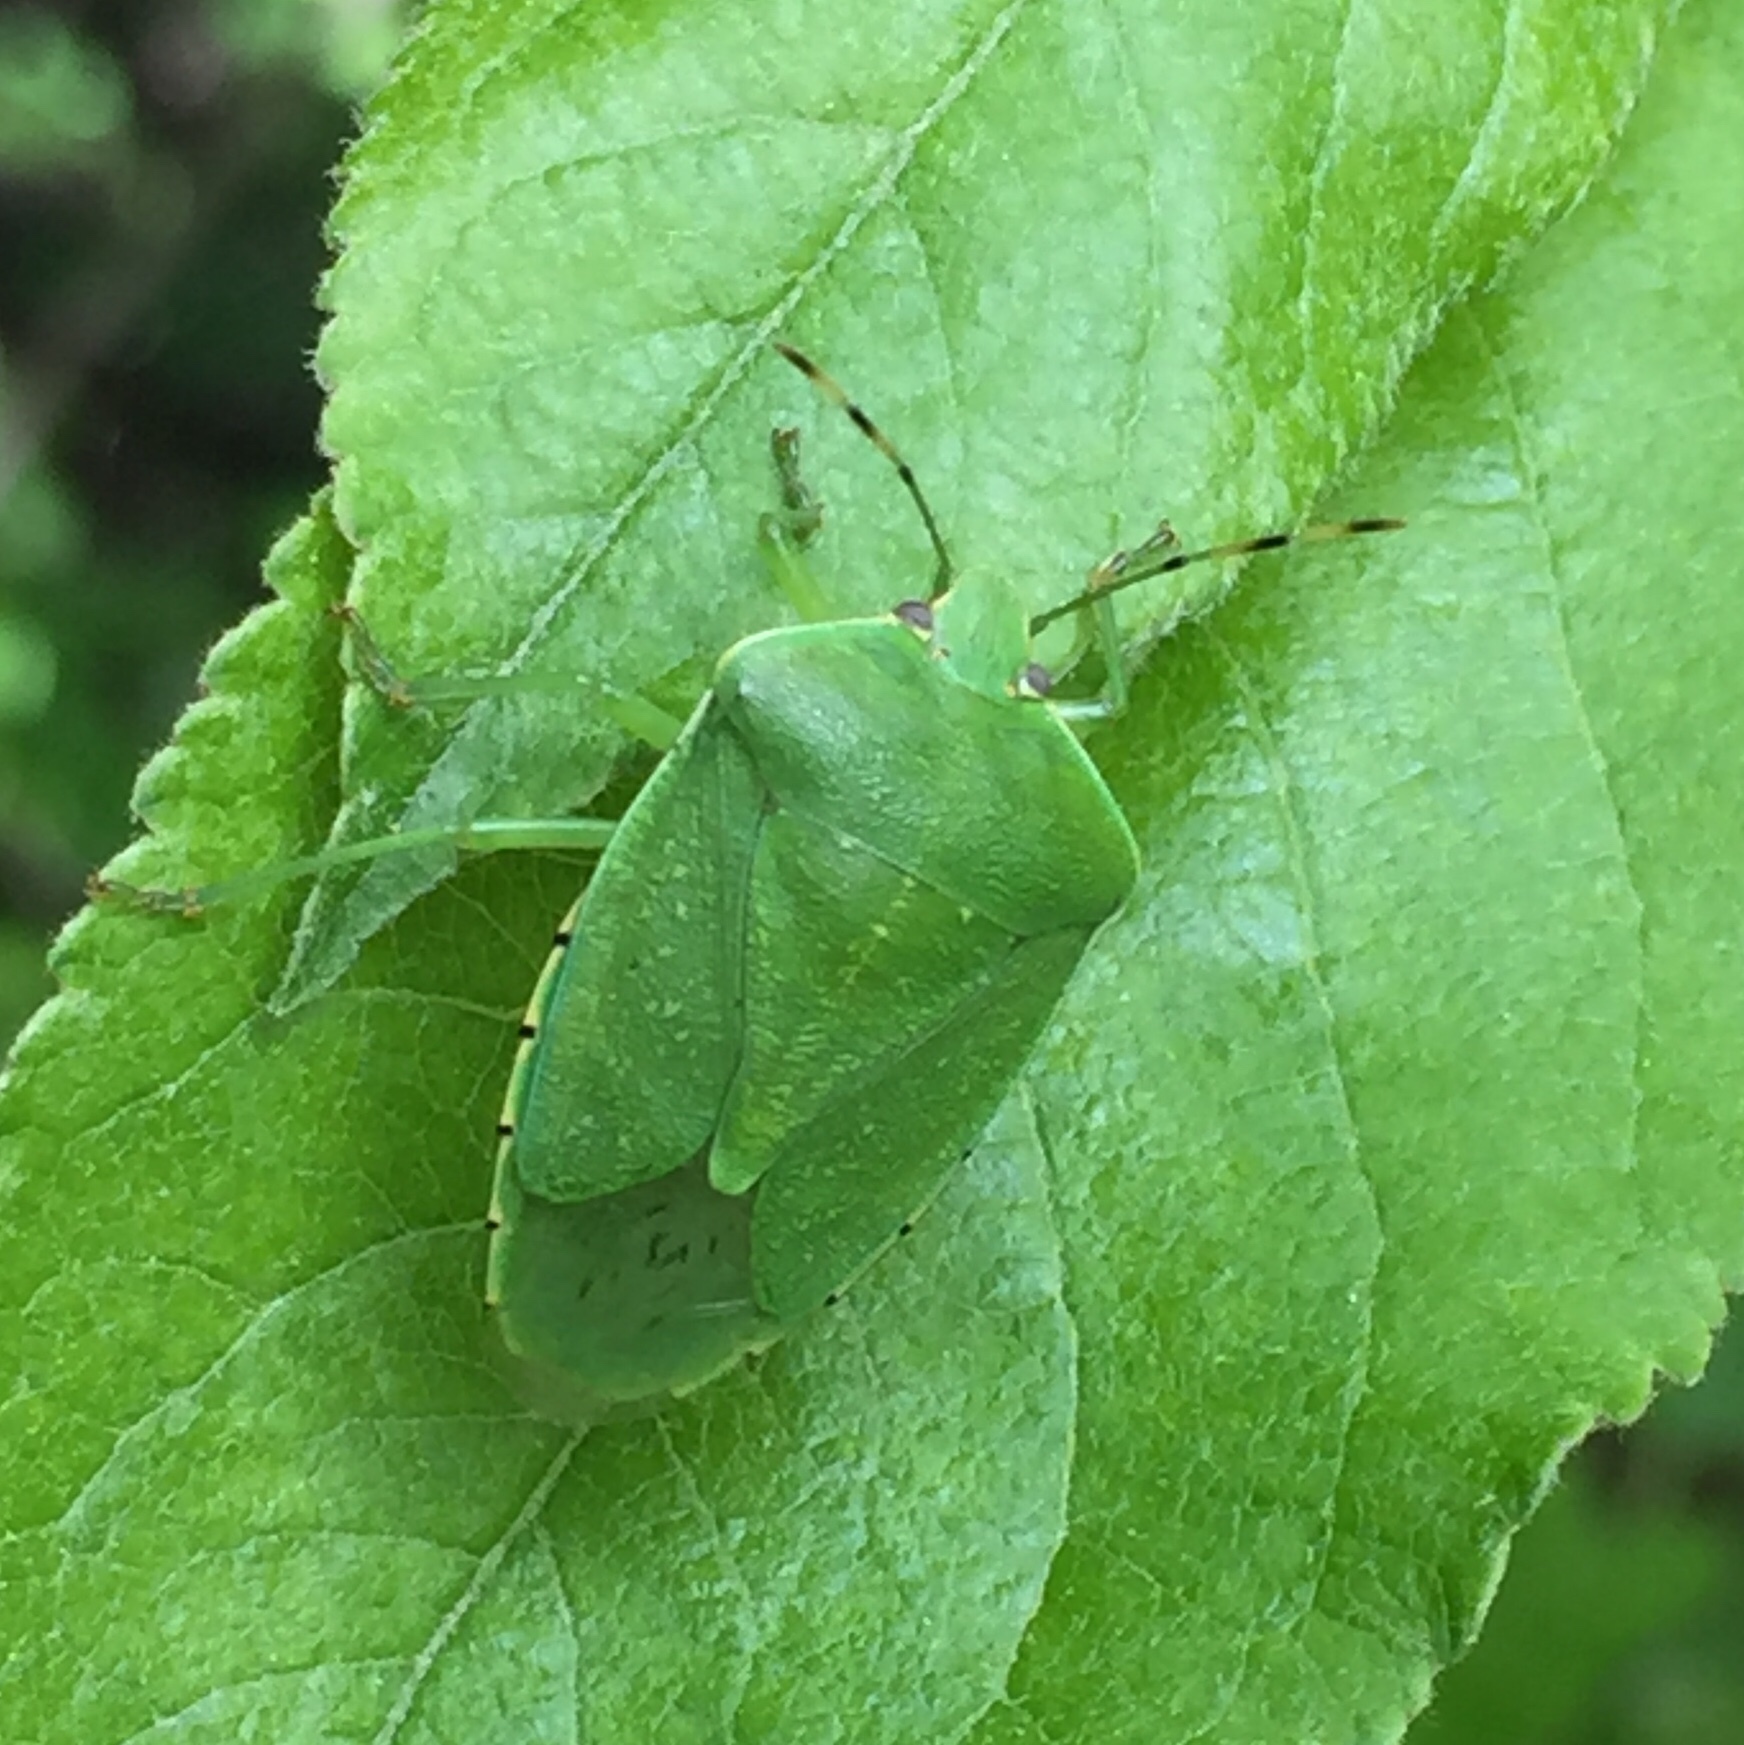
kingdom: Animalia
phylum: Arthropoda
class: Insecta
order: Hemiptera
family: Pentatomidae
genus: Chinavia
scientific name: Chinavia hilaris
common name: Green stink bug
